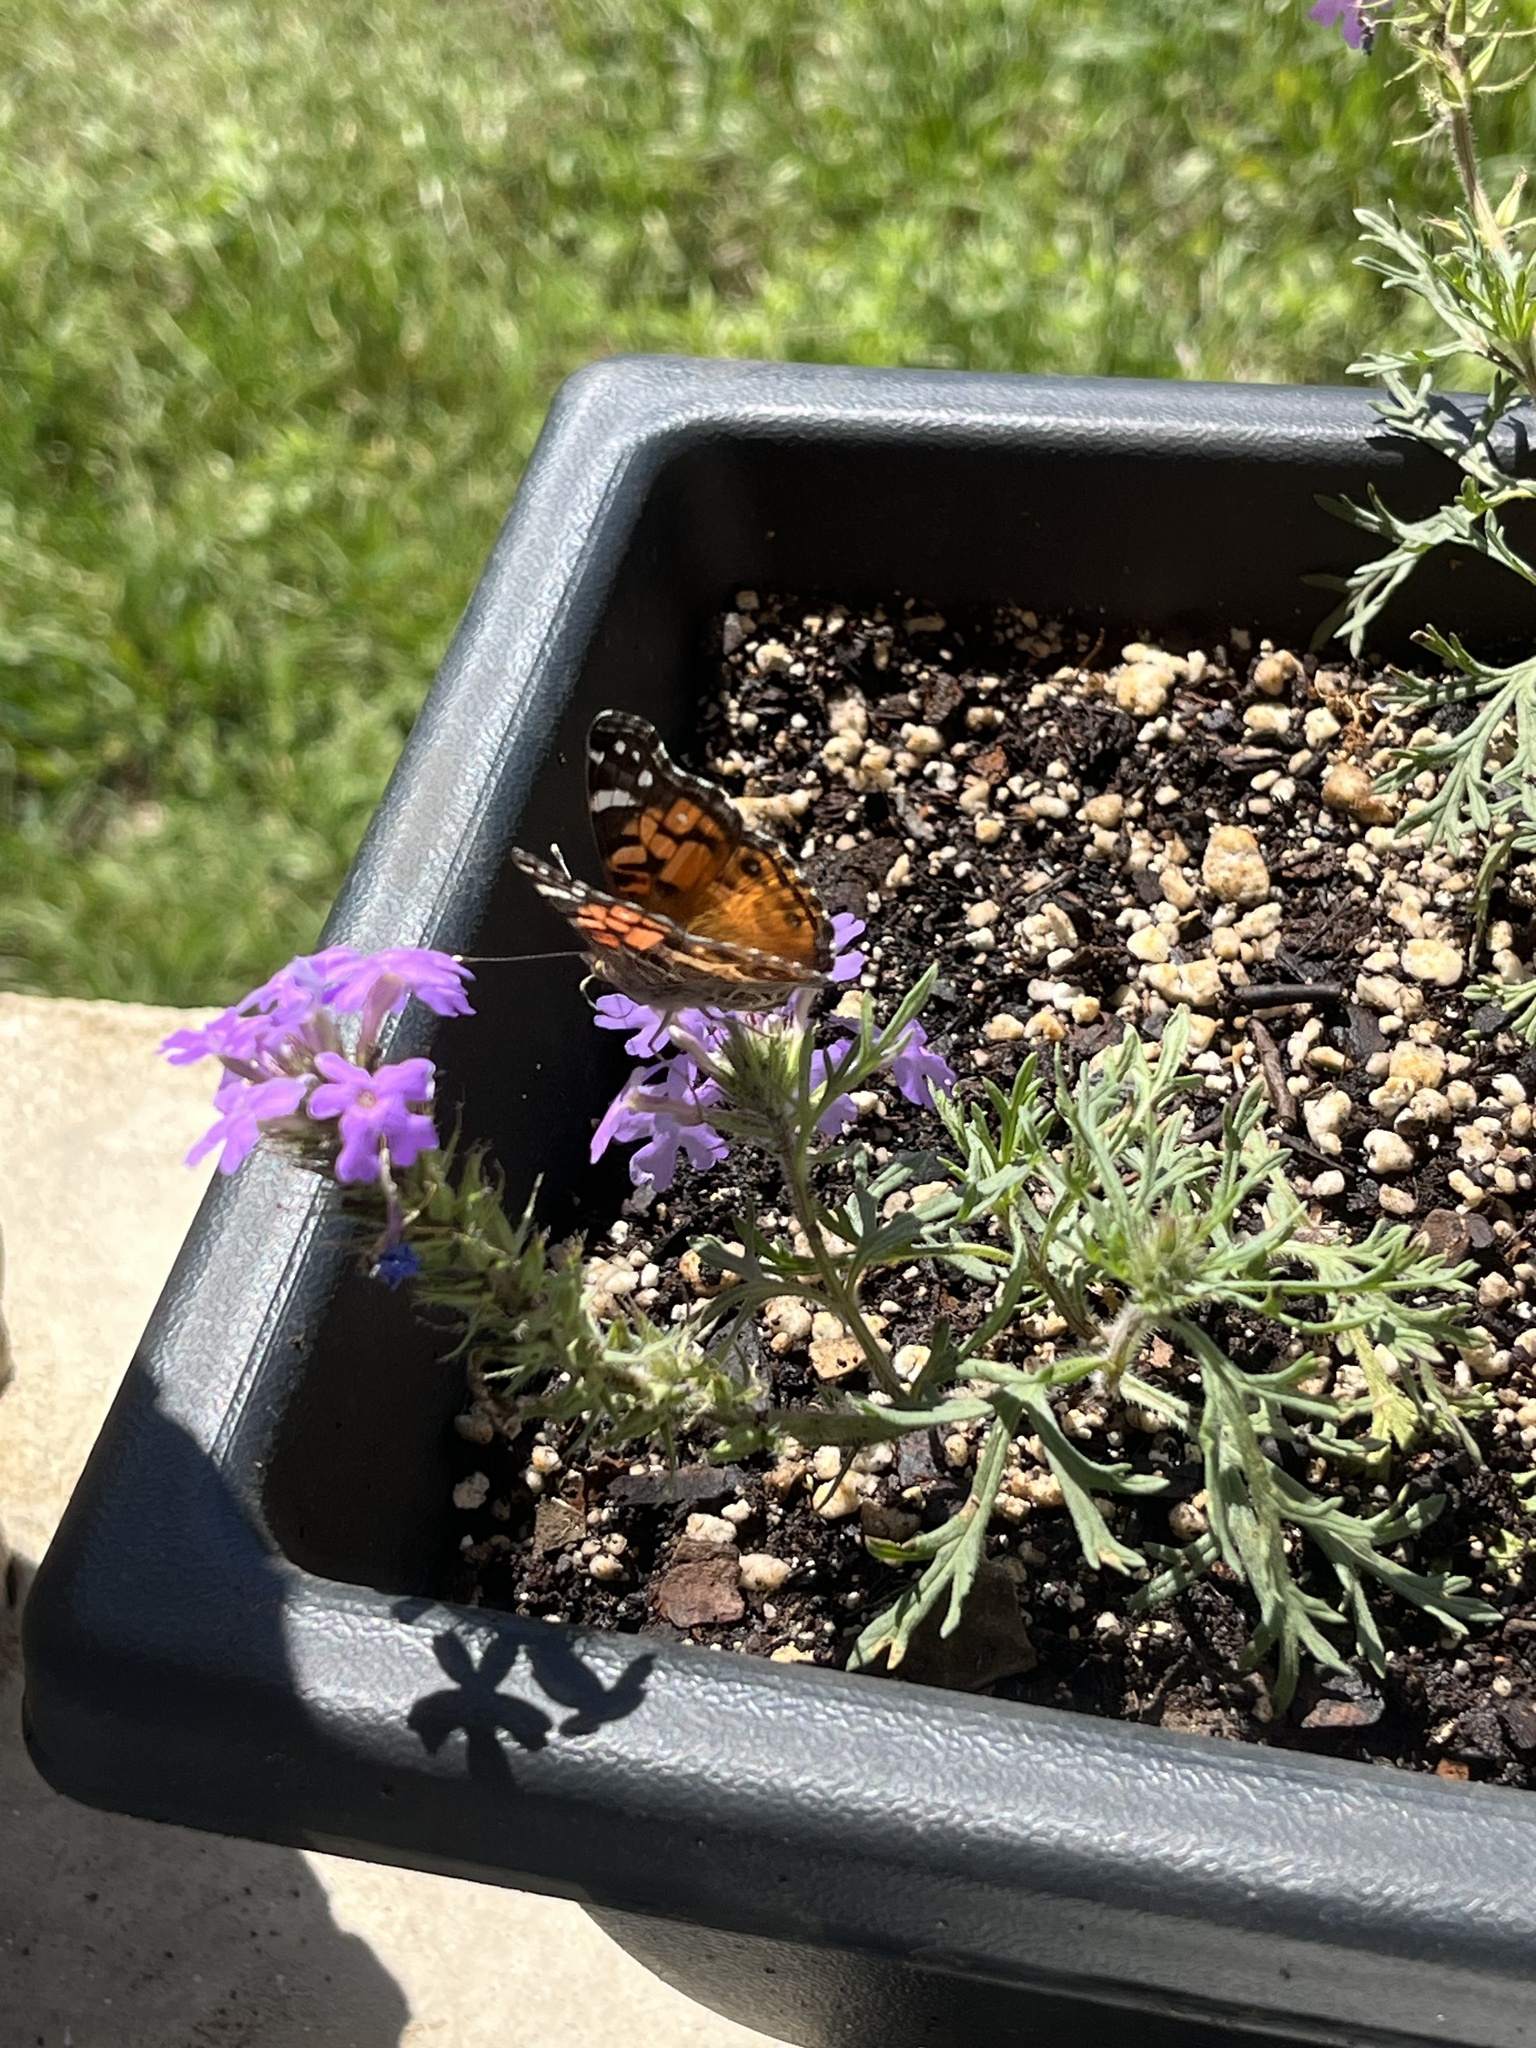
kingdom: Animalia
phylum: Arthropoda
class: Insecta
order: Lepidoptera
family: Nymphalidae
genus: Vanessa
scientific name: Vanessa virginiensis
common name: American lady
